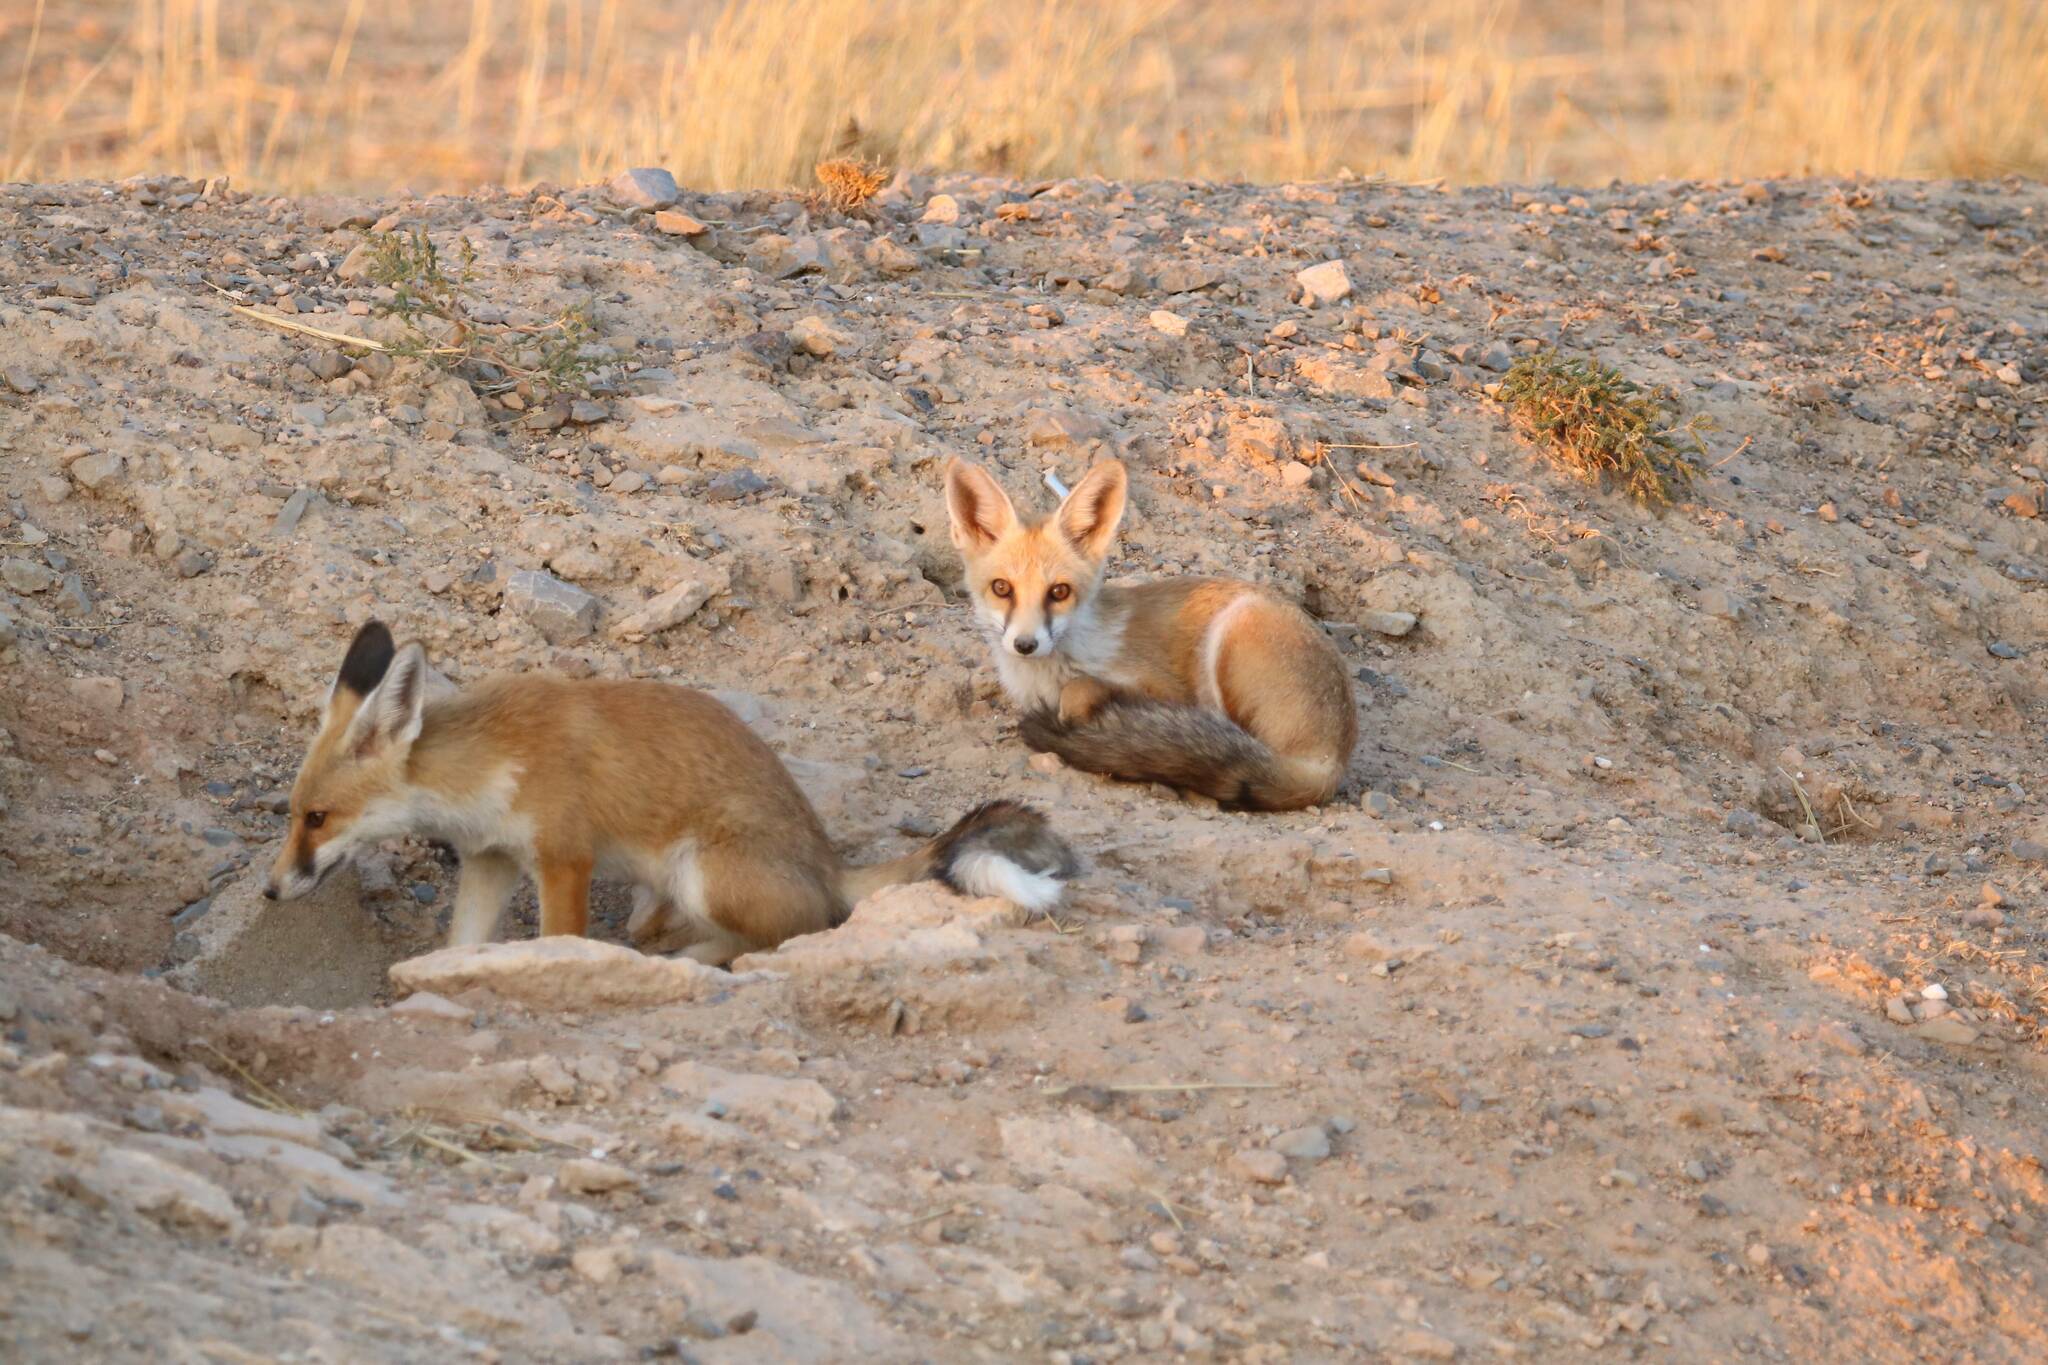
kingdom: Animalia
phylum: Chordata
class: Mammalia
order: Carnivora
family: Canidae
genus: Vulpes
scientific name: Vulpes vulpes
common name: Red fox
